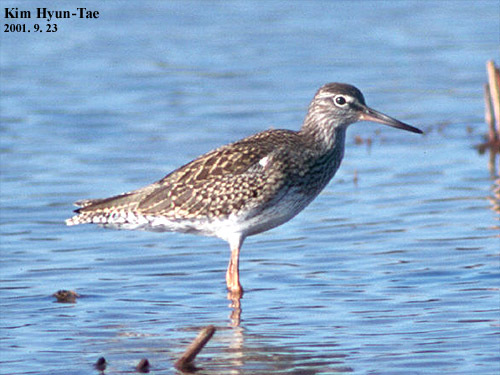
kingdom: Animalia
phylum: Chordata
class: Aves
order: Charadriiformes
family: Scolopacidae
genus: Tringa
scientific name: Tringa totanus
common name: Common redshank
